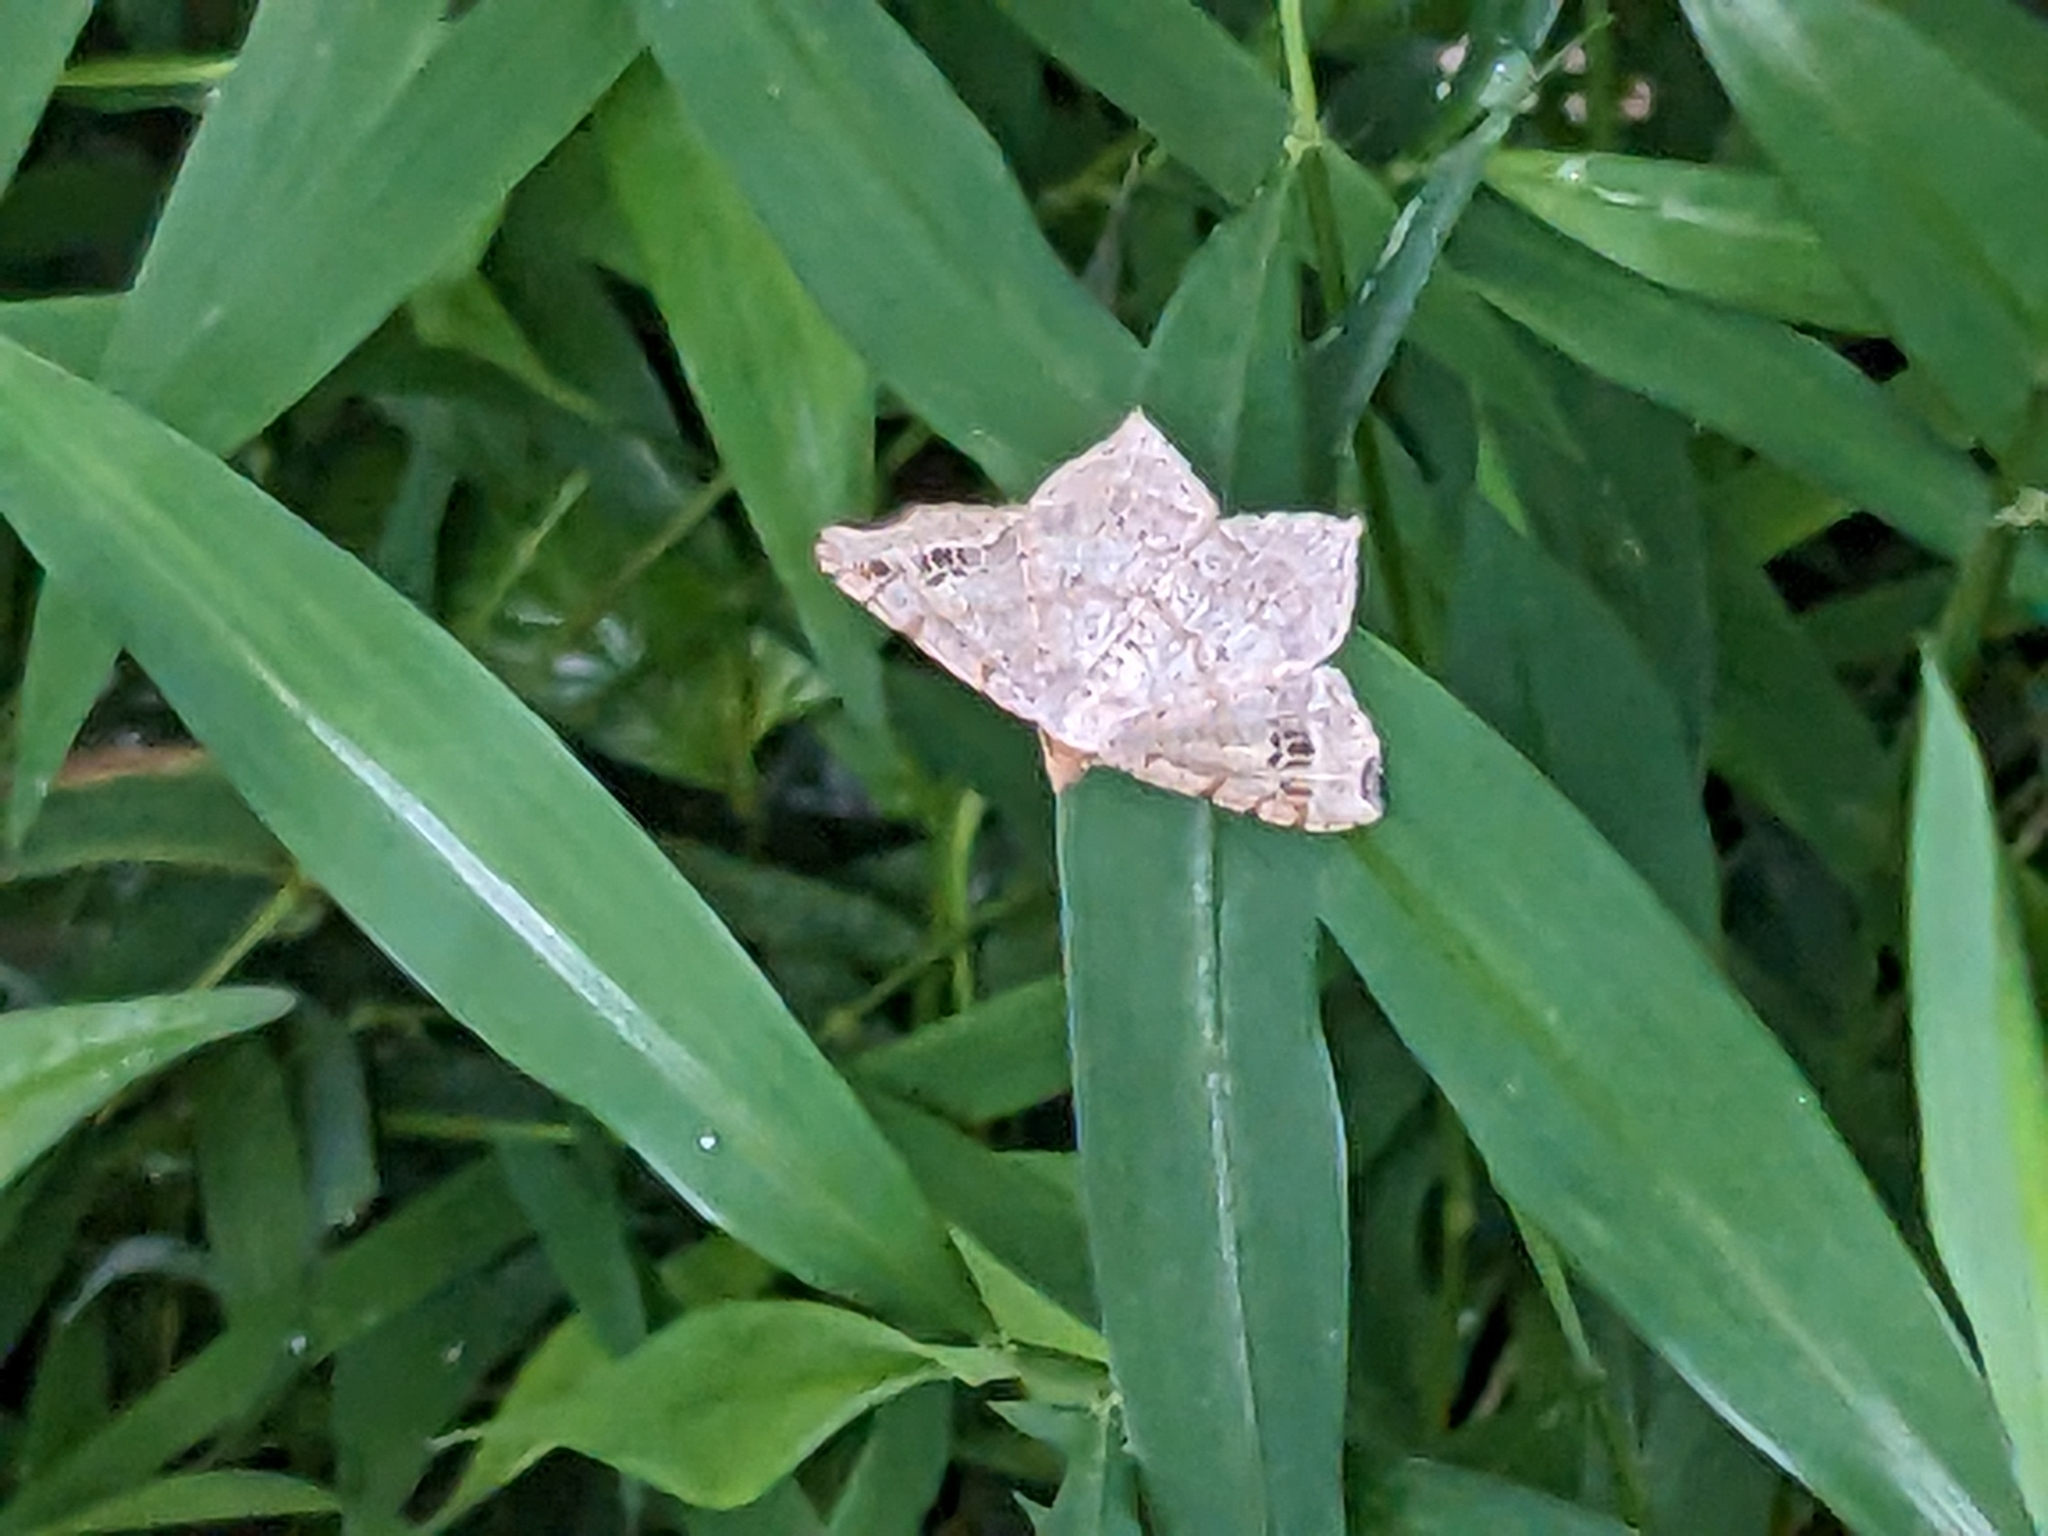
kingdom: Animalia
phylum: Arthropoda
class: Insecta
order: Lepidoptera
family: Geometridae
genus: Macaria
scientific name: Macaria aemulataria
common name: Common angle
